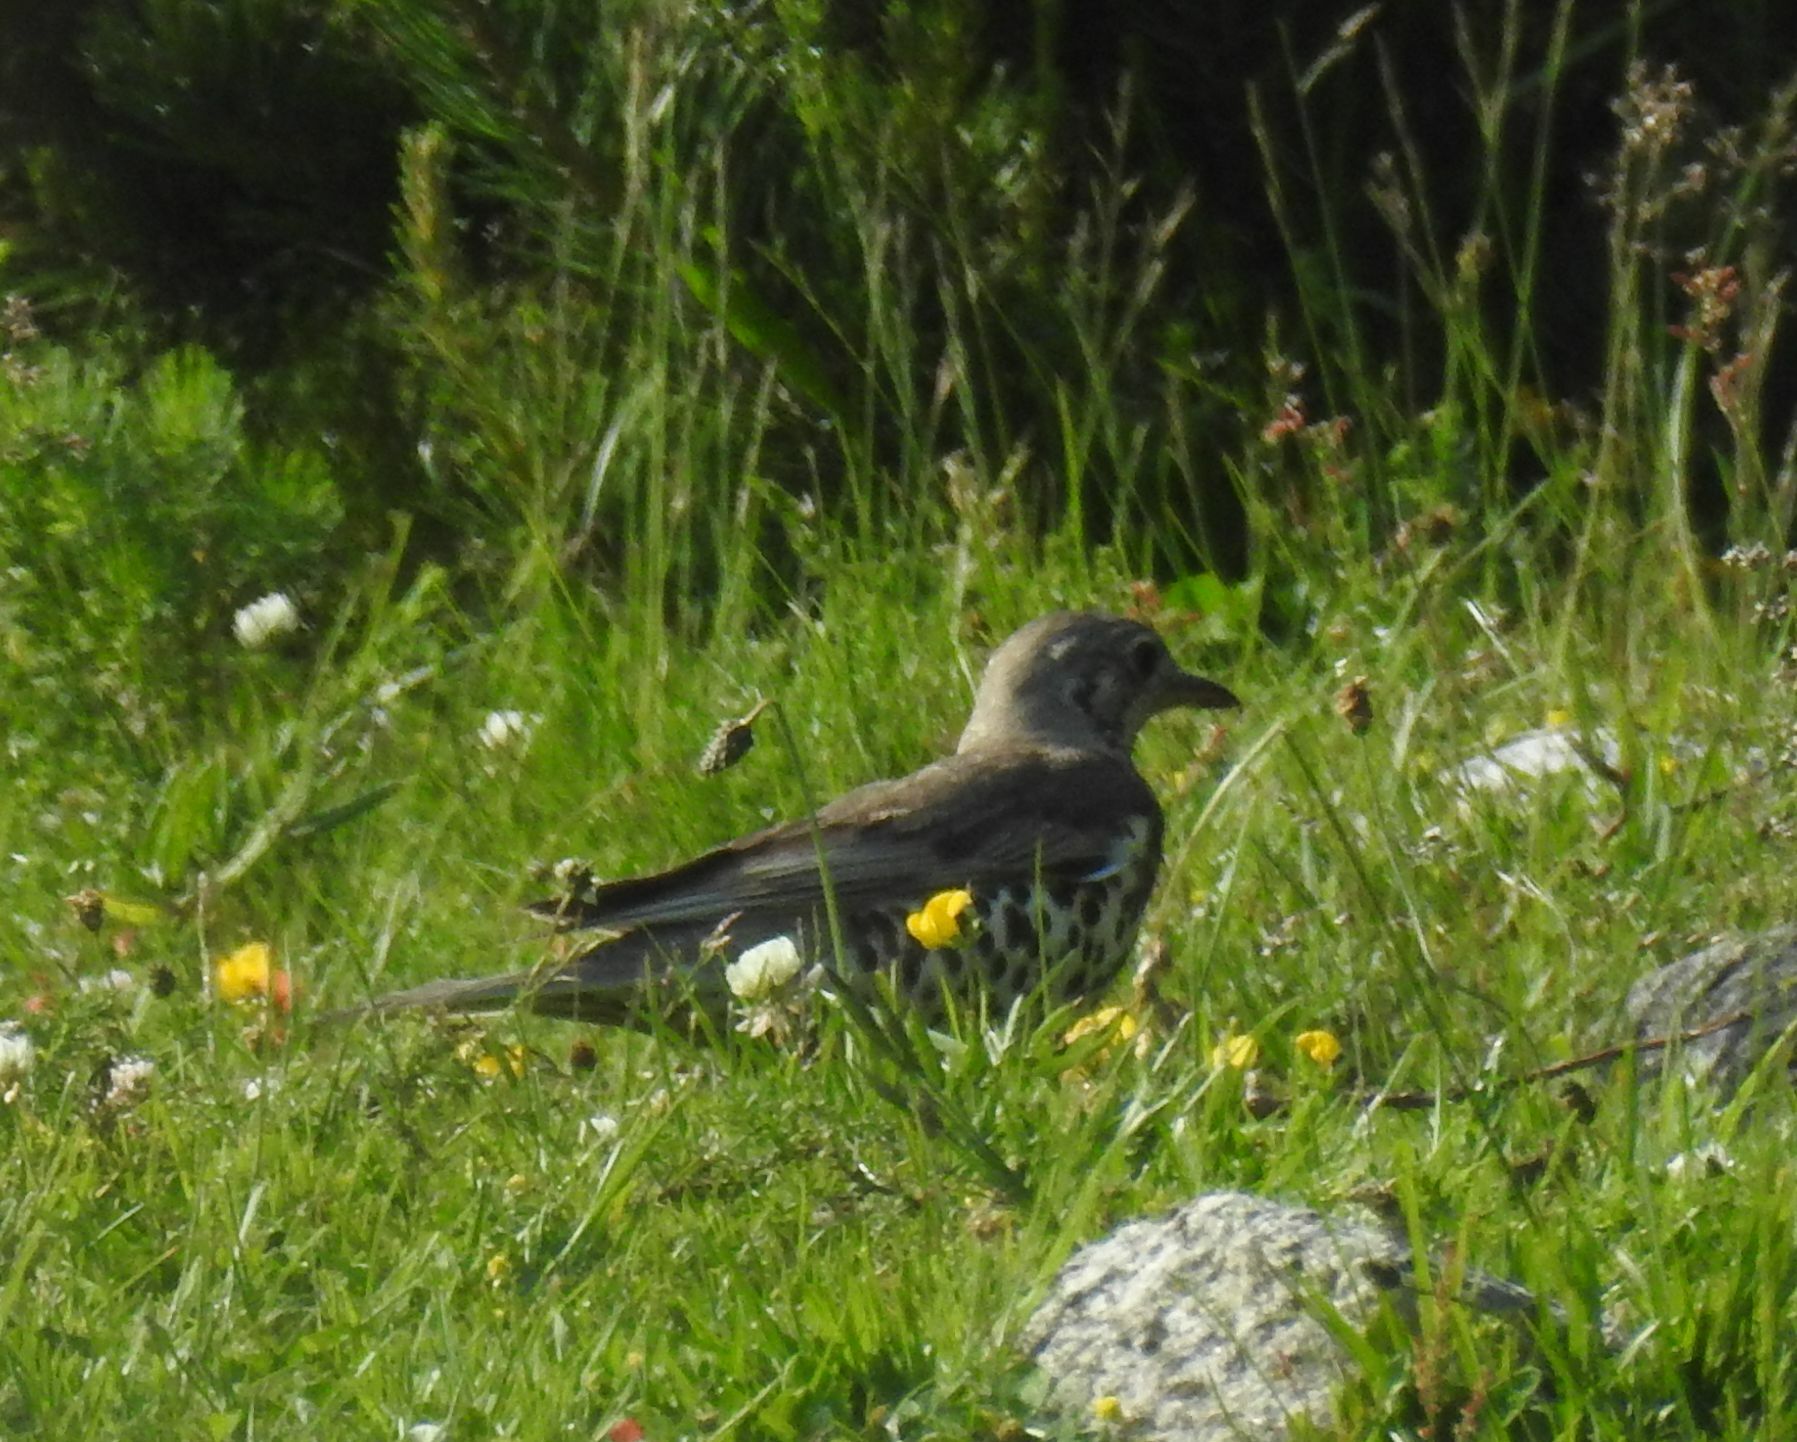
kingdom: Animalia
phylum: Chordata
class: Aves
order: Passeriformes
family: Turdidae
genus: Turdus
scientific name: Turdus viscivorus
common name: Mistle thrush
